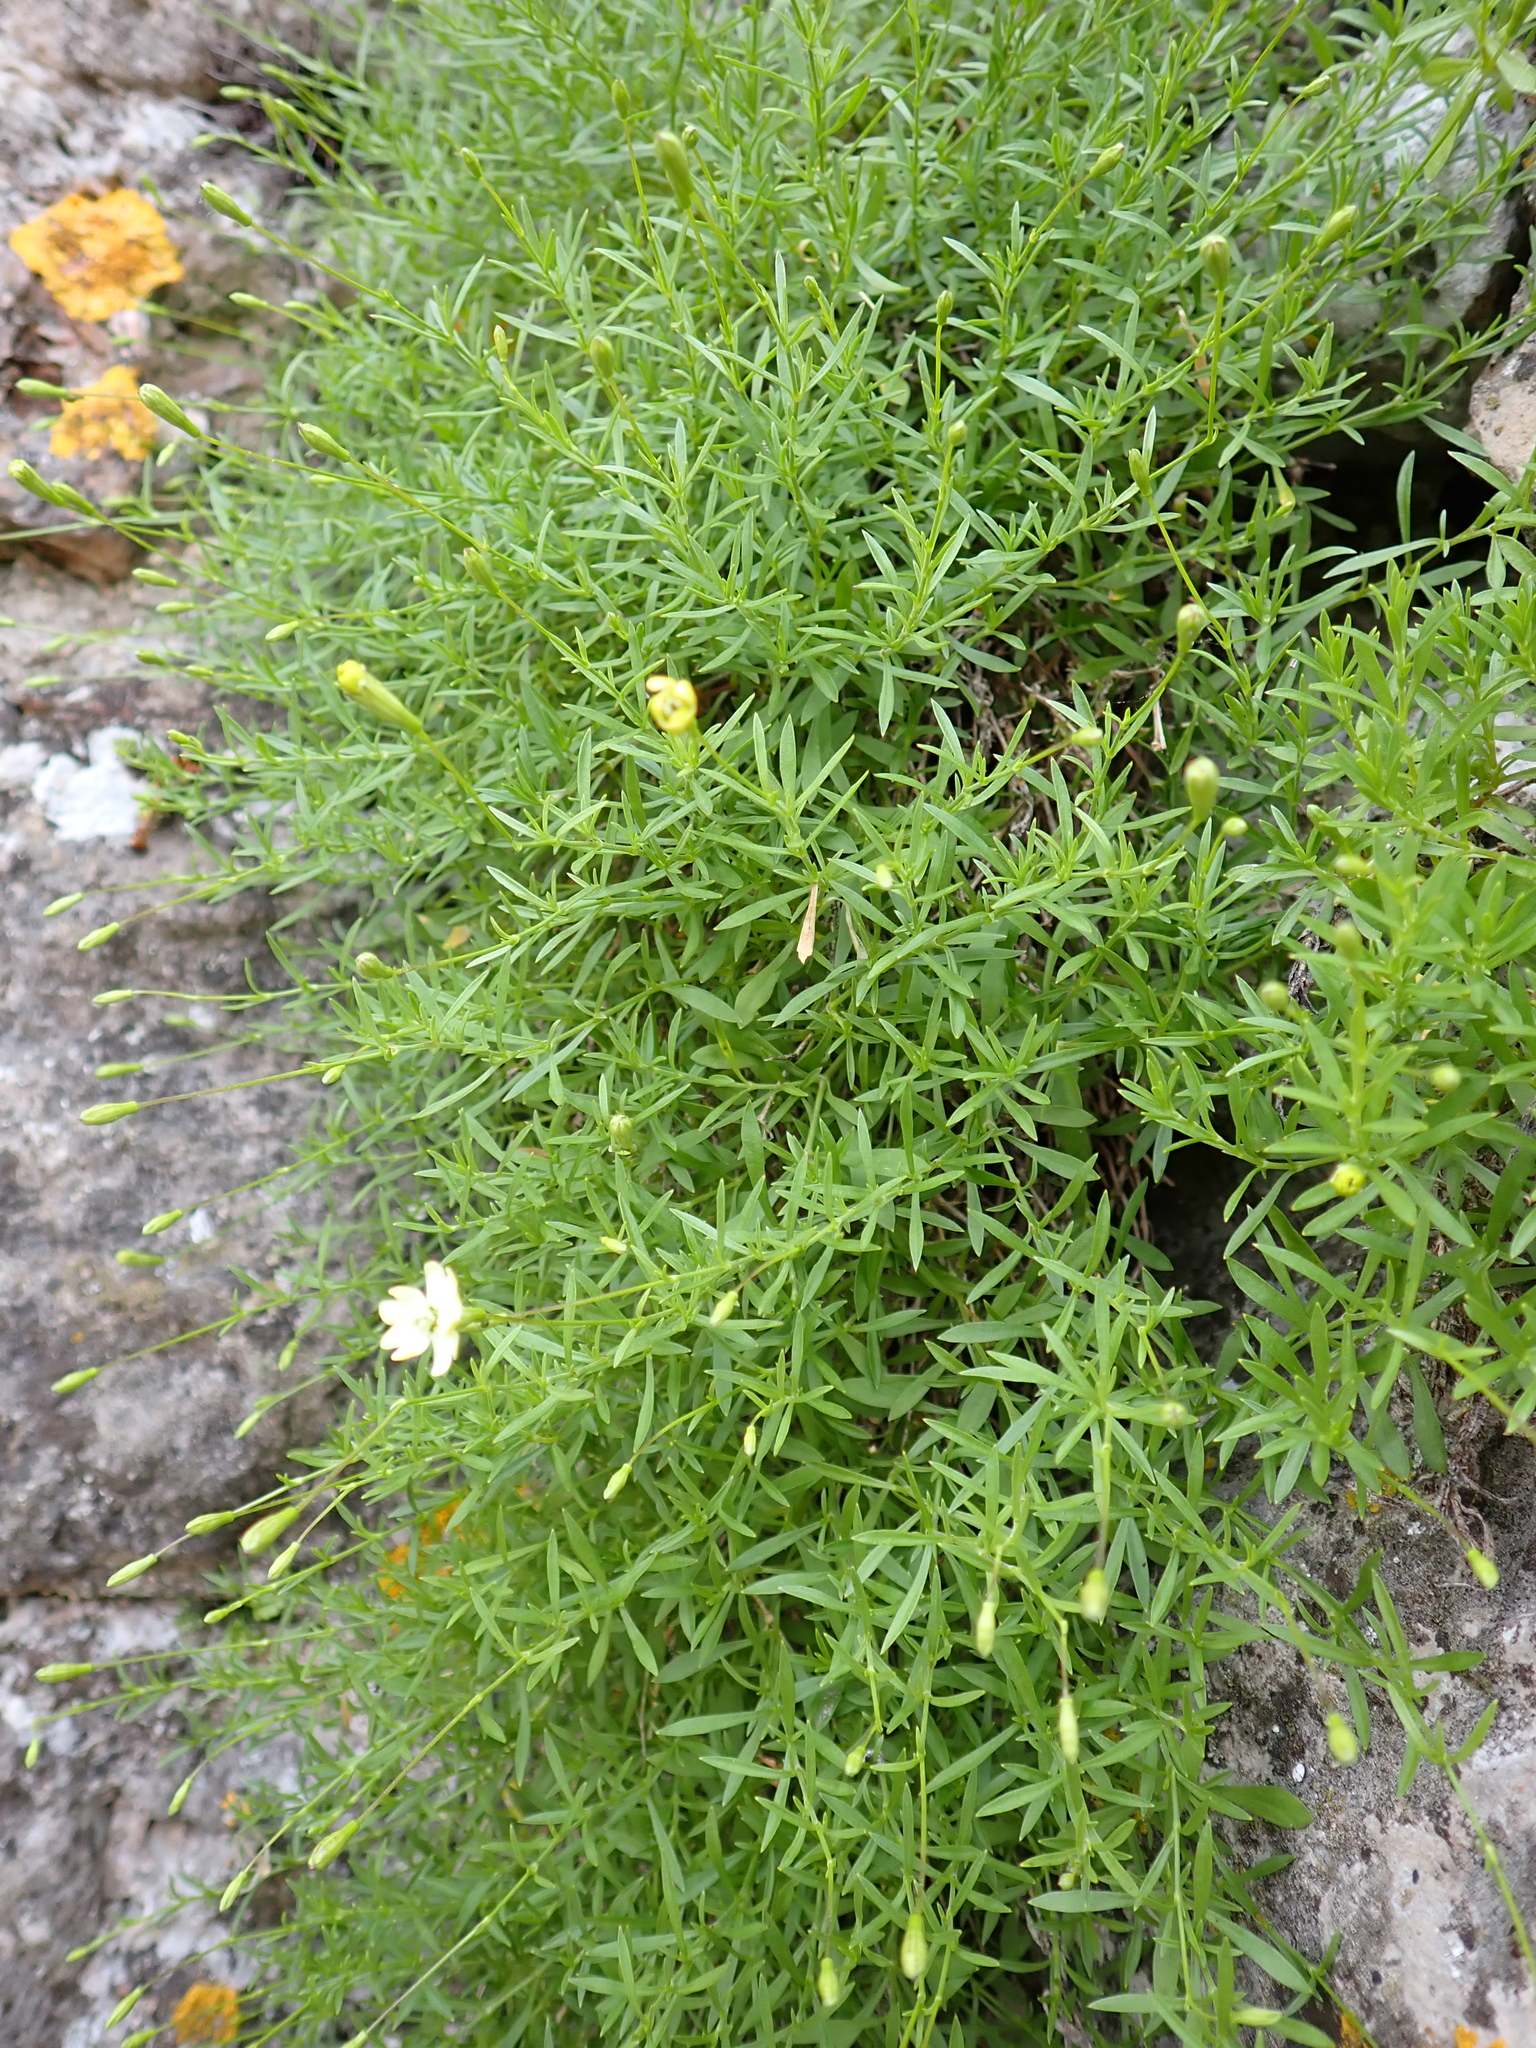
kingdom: Plantae
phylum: Tracheophyta
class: Magnoliopsida
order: Caryophyllales
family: Caryophyllaceae
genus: Silene
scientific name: Silene saxifraga
